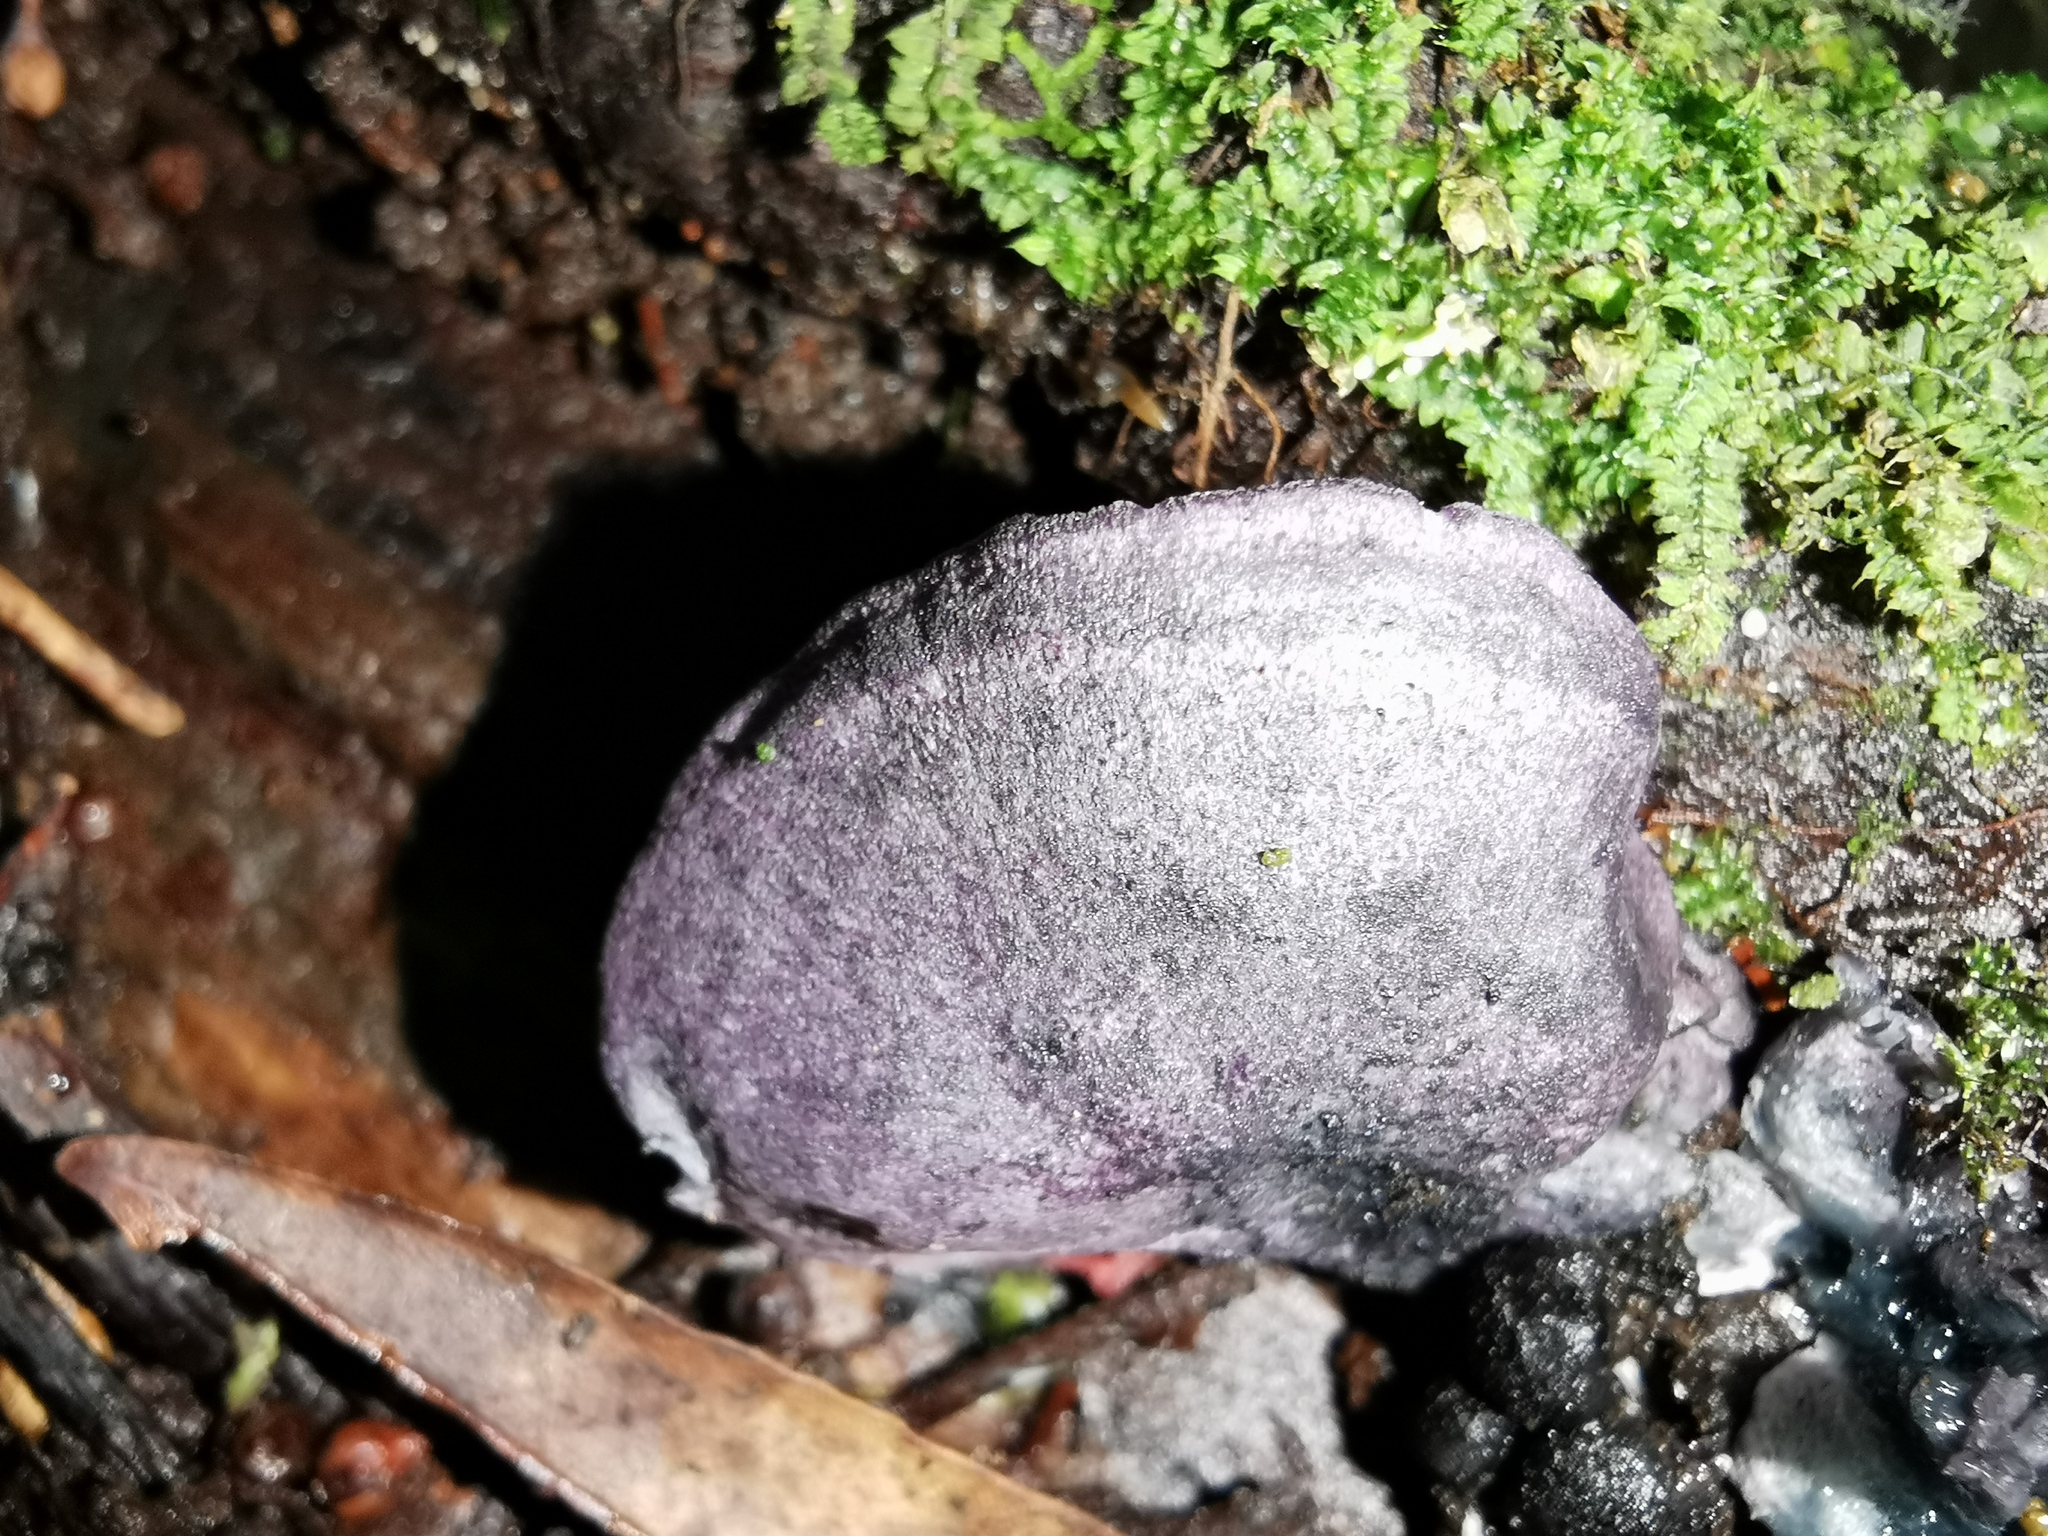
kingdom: Fungi
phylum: Basidiomycota
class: Agaricomycetes
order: Agaricales
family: Marasmiaceae
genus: Gerronema
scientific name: Gerronema waikanaense
